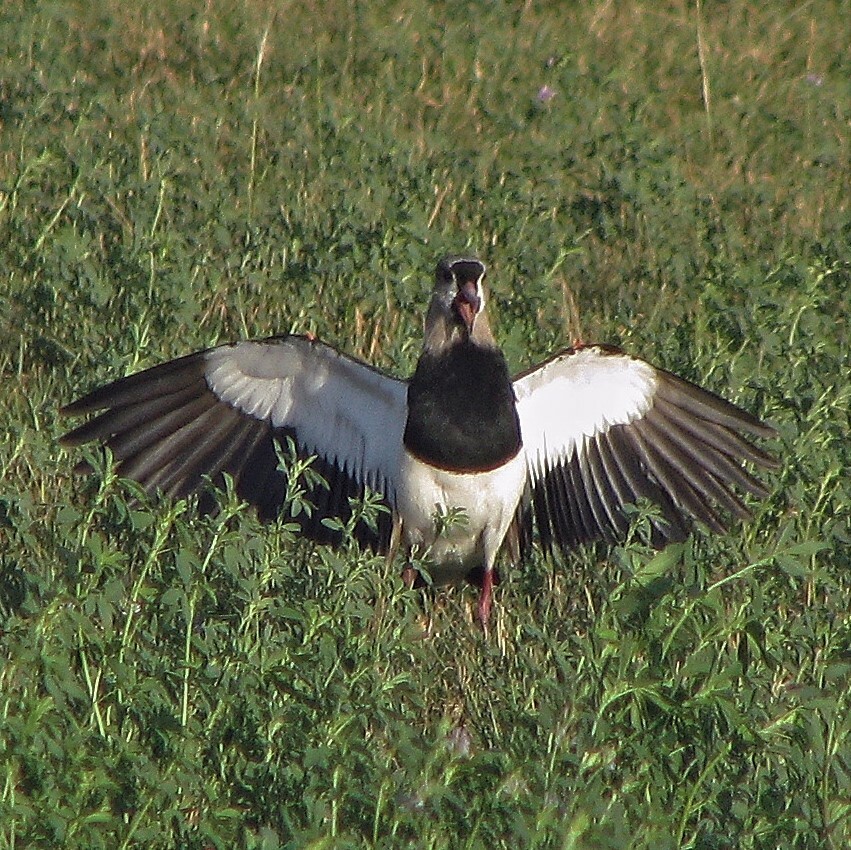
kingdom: Animalia
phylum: Chordata
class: Aves
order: Charadriiformes
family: Charadriidae
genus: Vanellus
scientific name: Vanellus chilensis
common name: Southern lapwing
